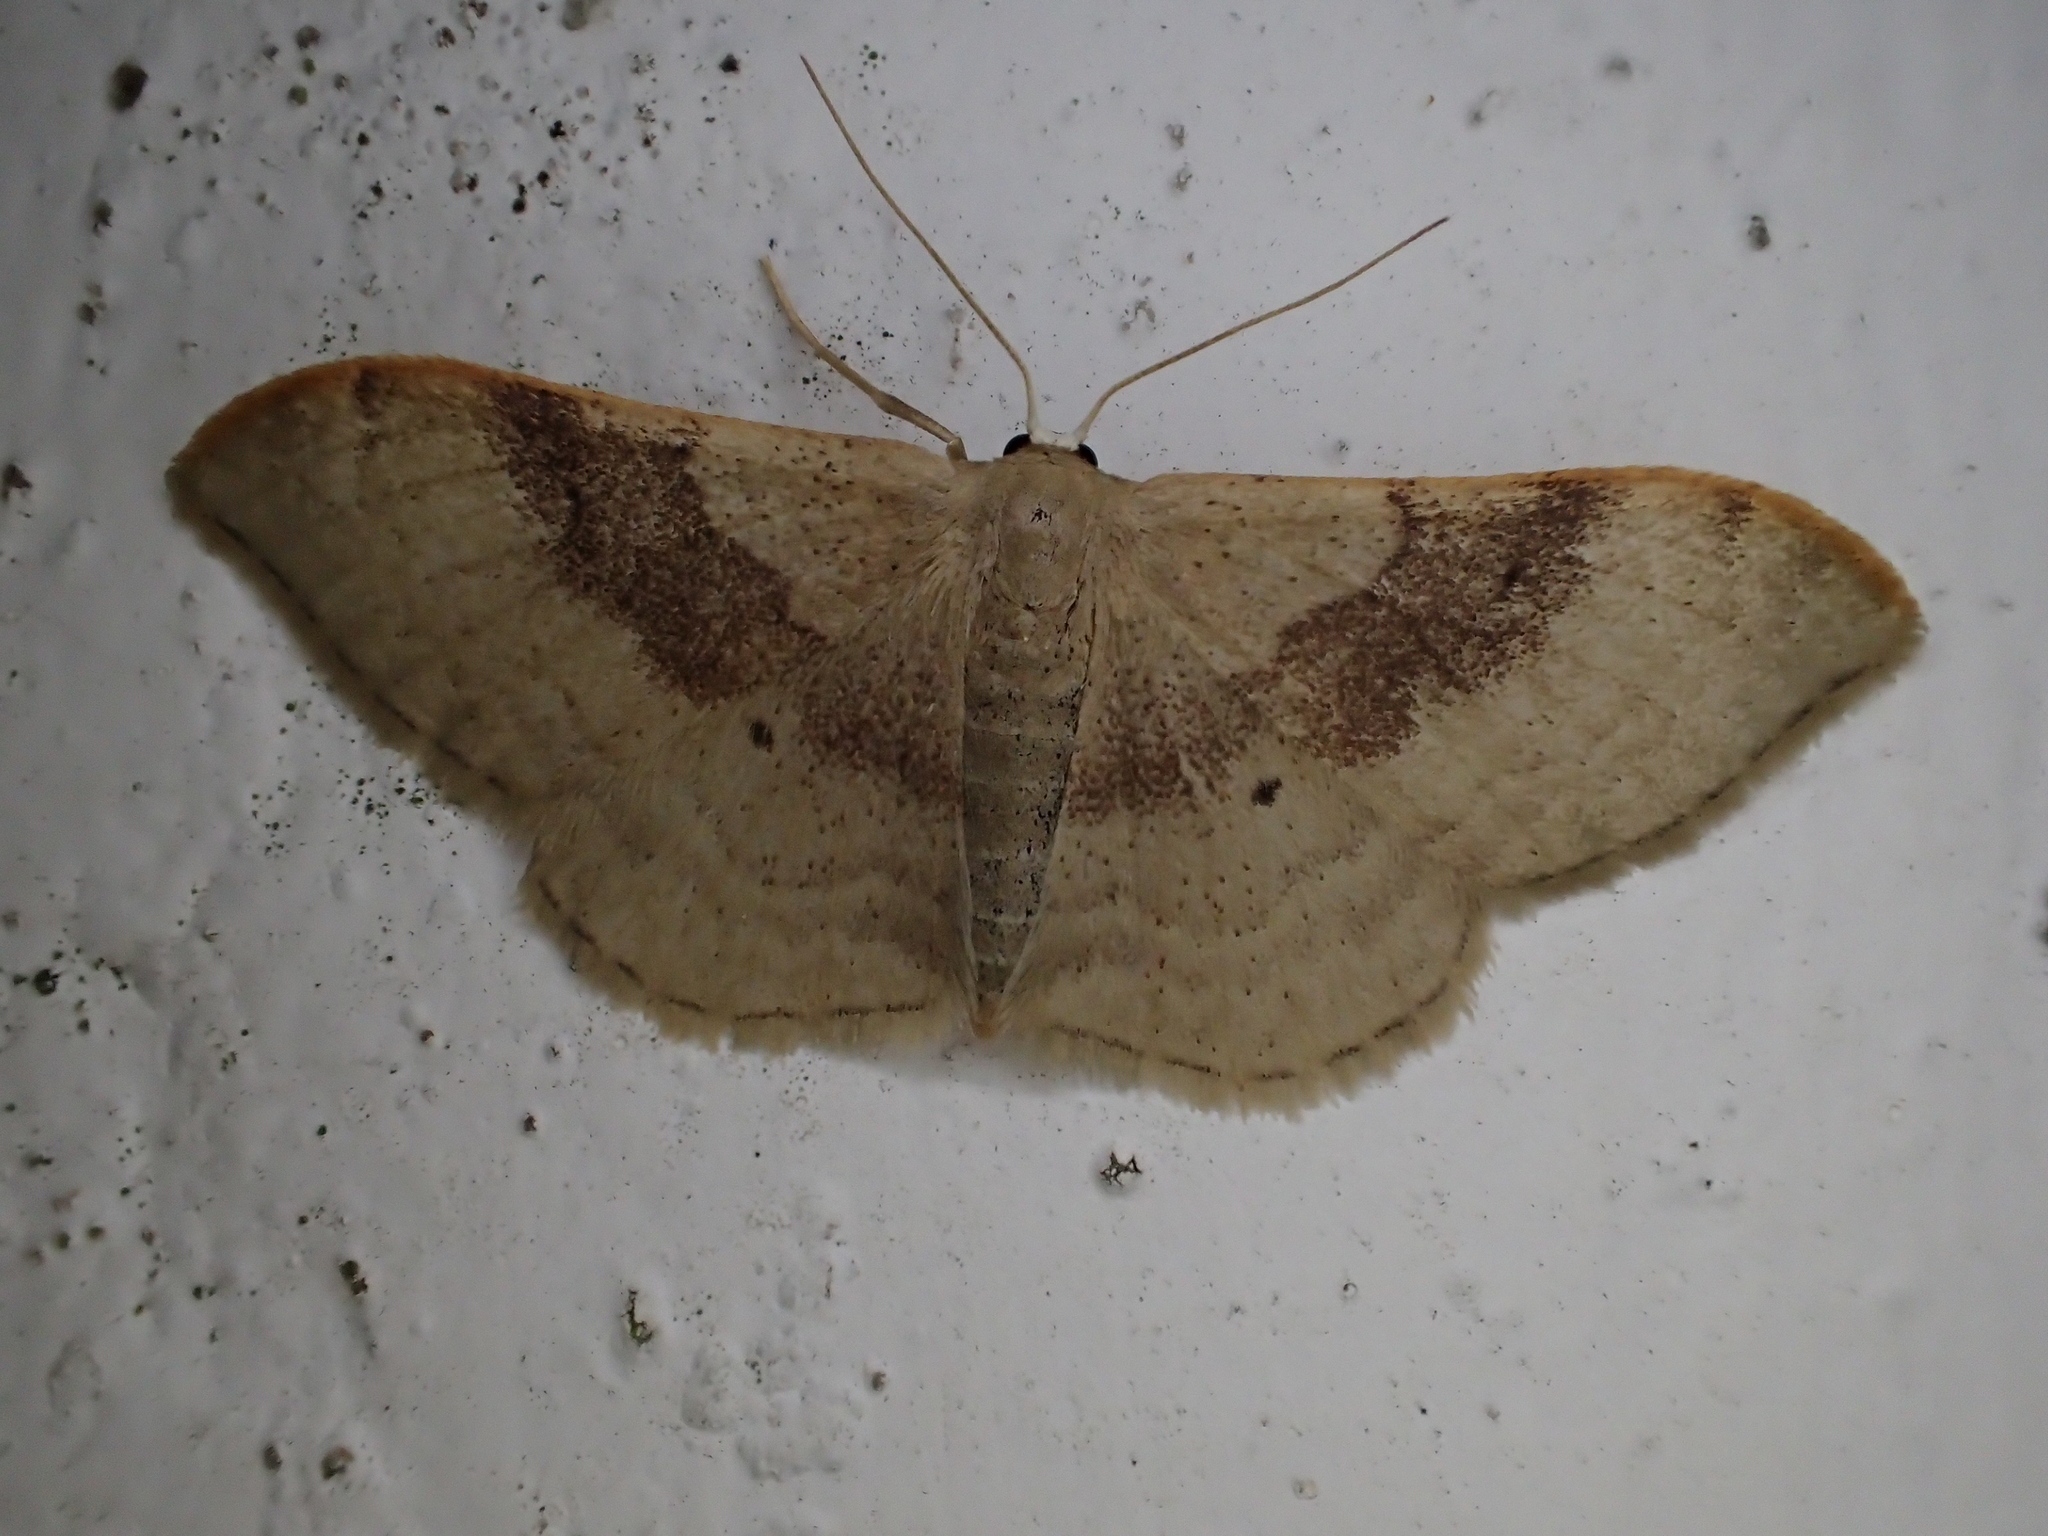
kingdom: Animalia
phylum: Arthropoda
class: Insecta
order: Lepidoptera
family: Geometridae
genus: Idaea
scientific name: Idaea degeneraria
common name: Portland ribbon wave
